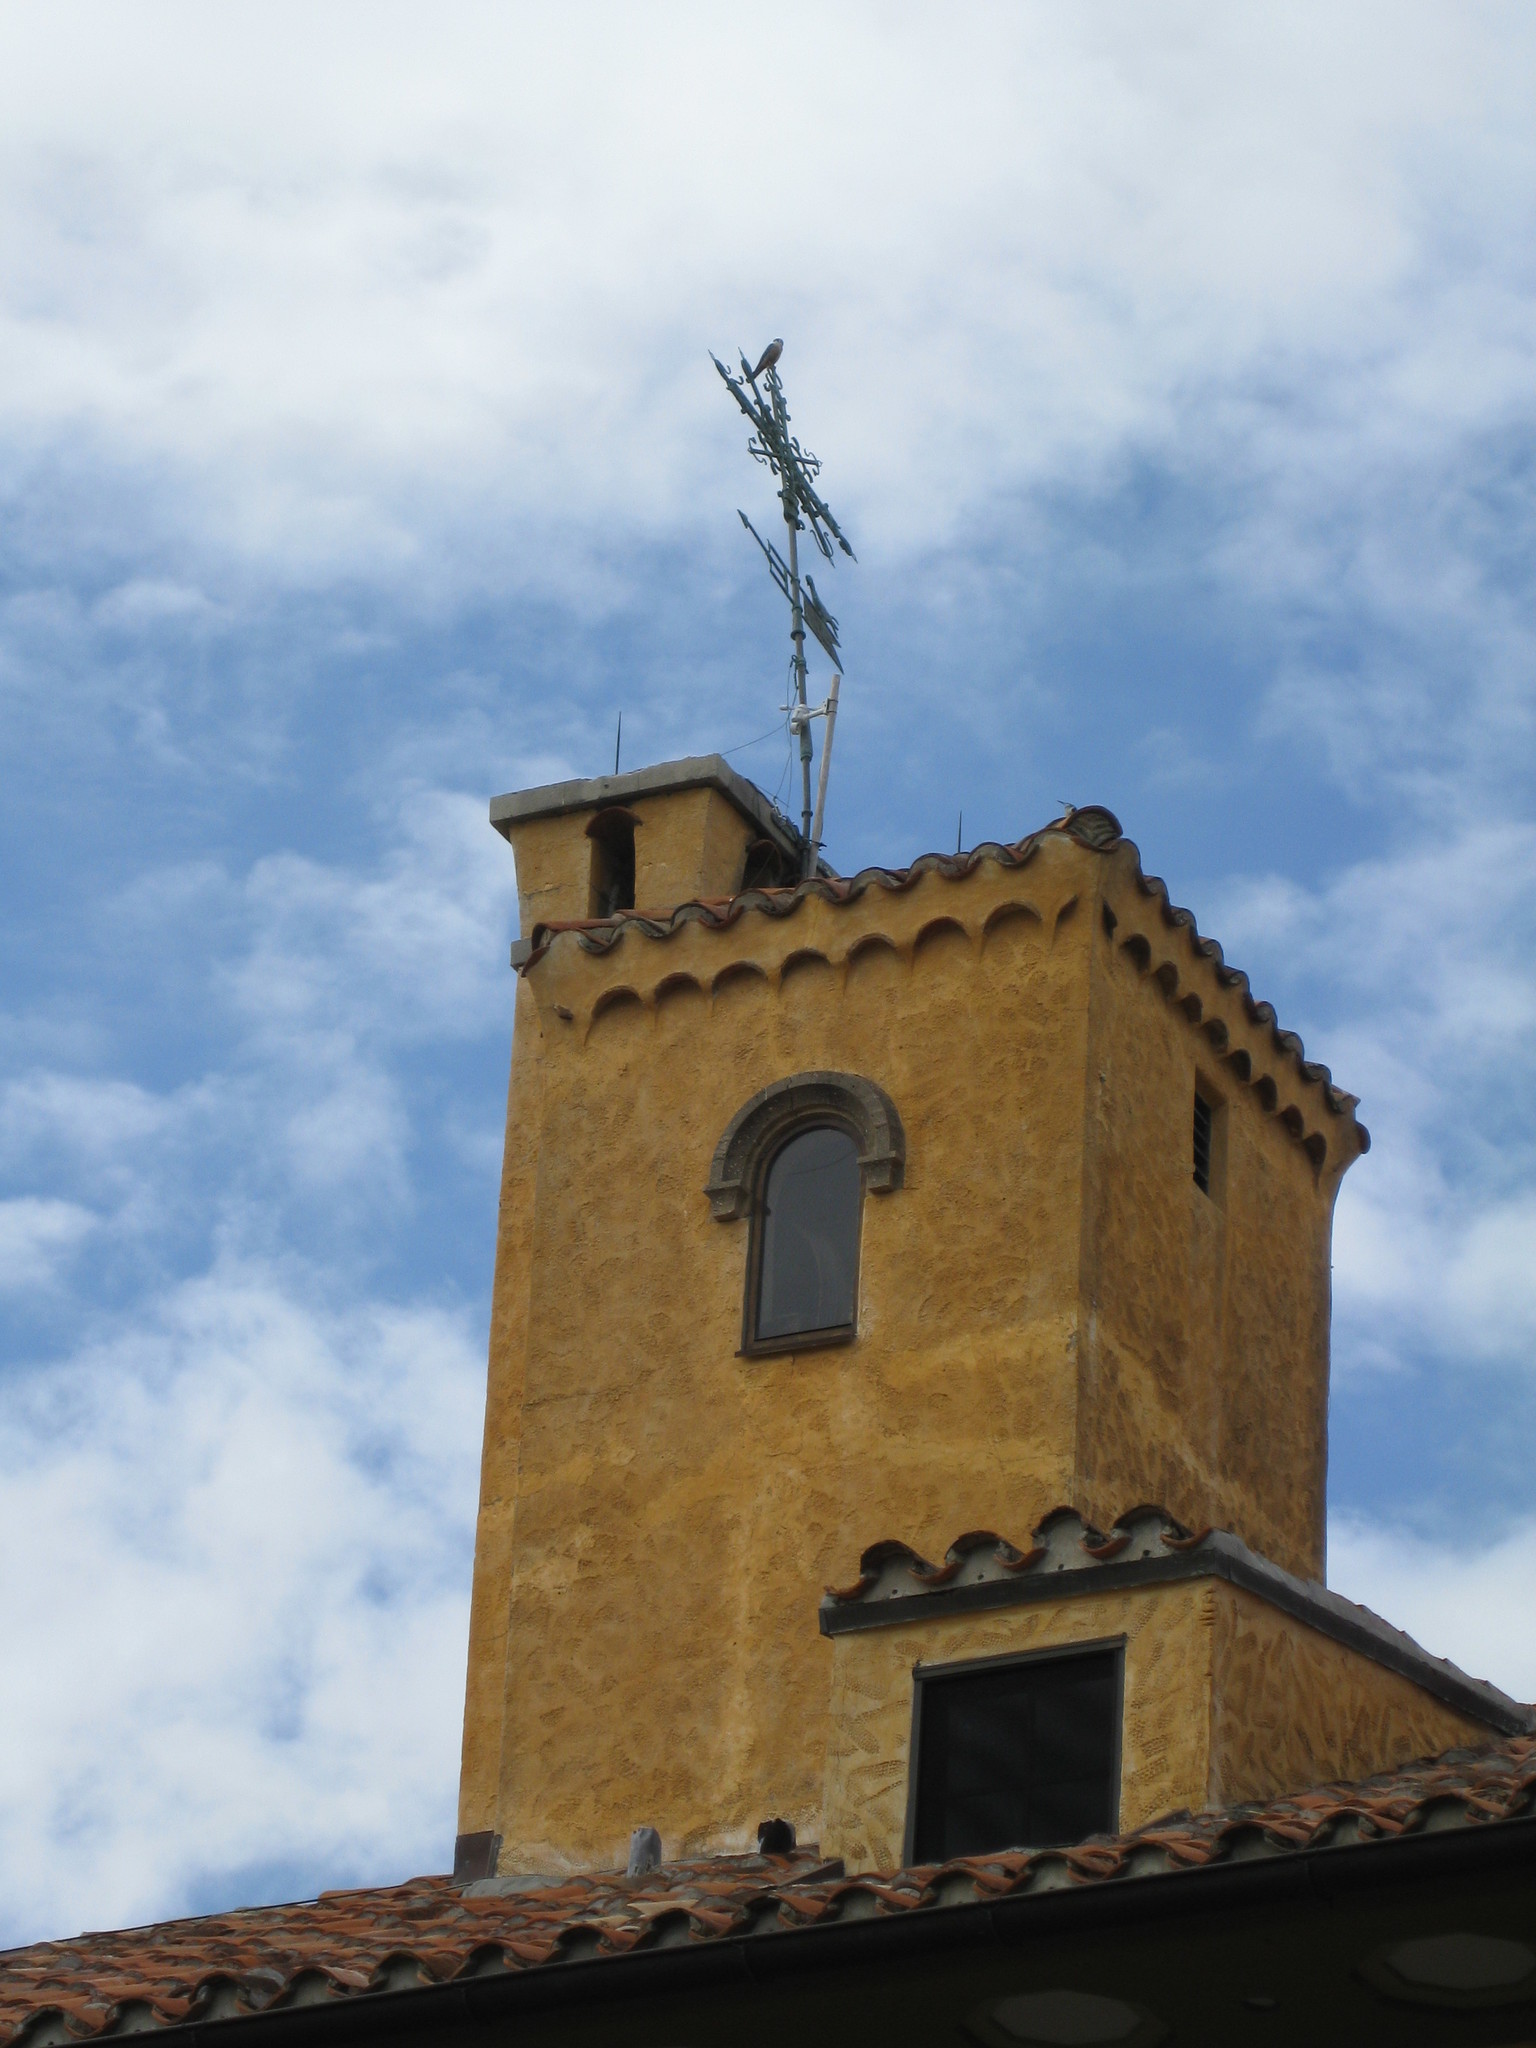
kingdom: Animalia
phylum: Chordata
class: Aves
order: Falconiformes
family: Falconidae
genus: Falco
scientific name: Falco sparverius
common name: American kestrel
